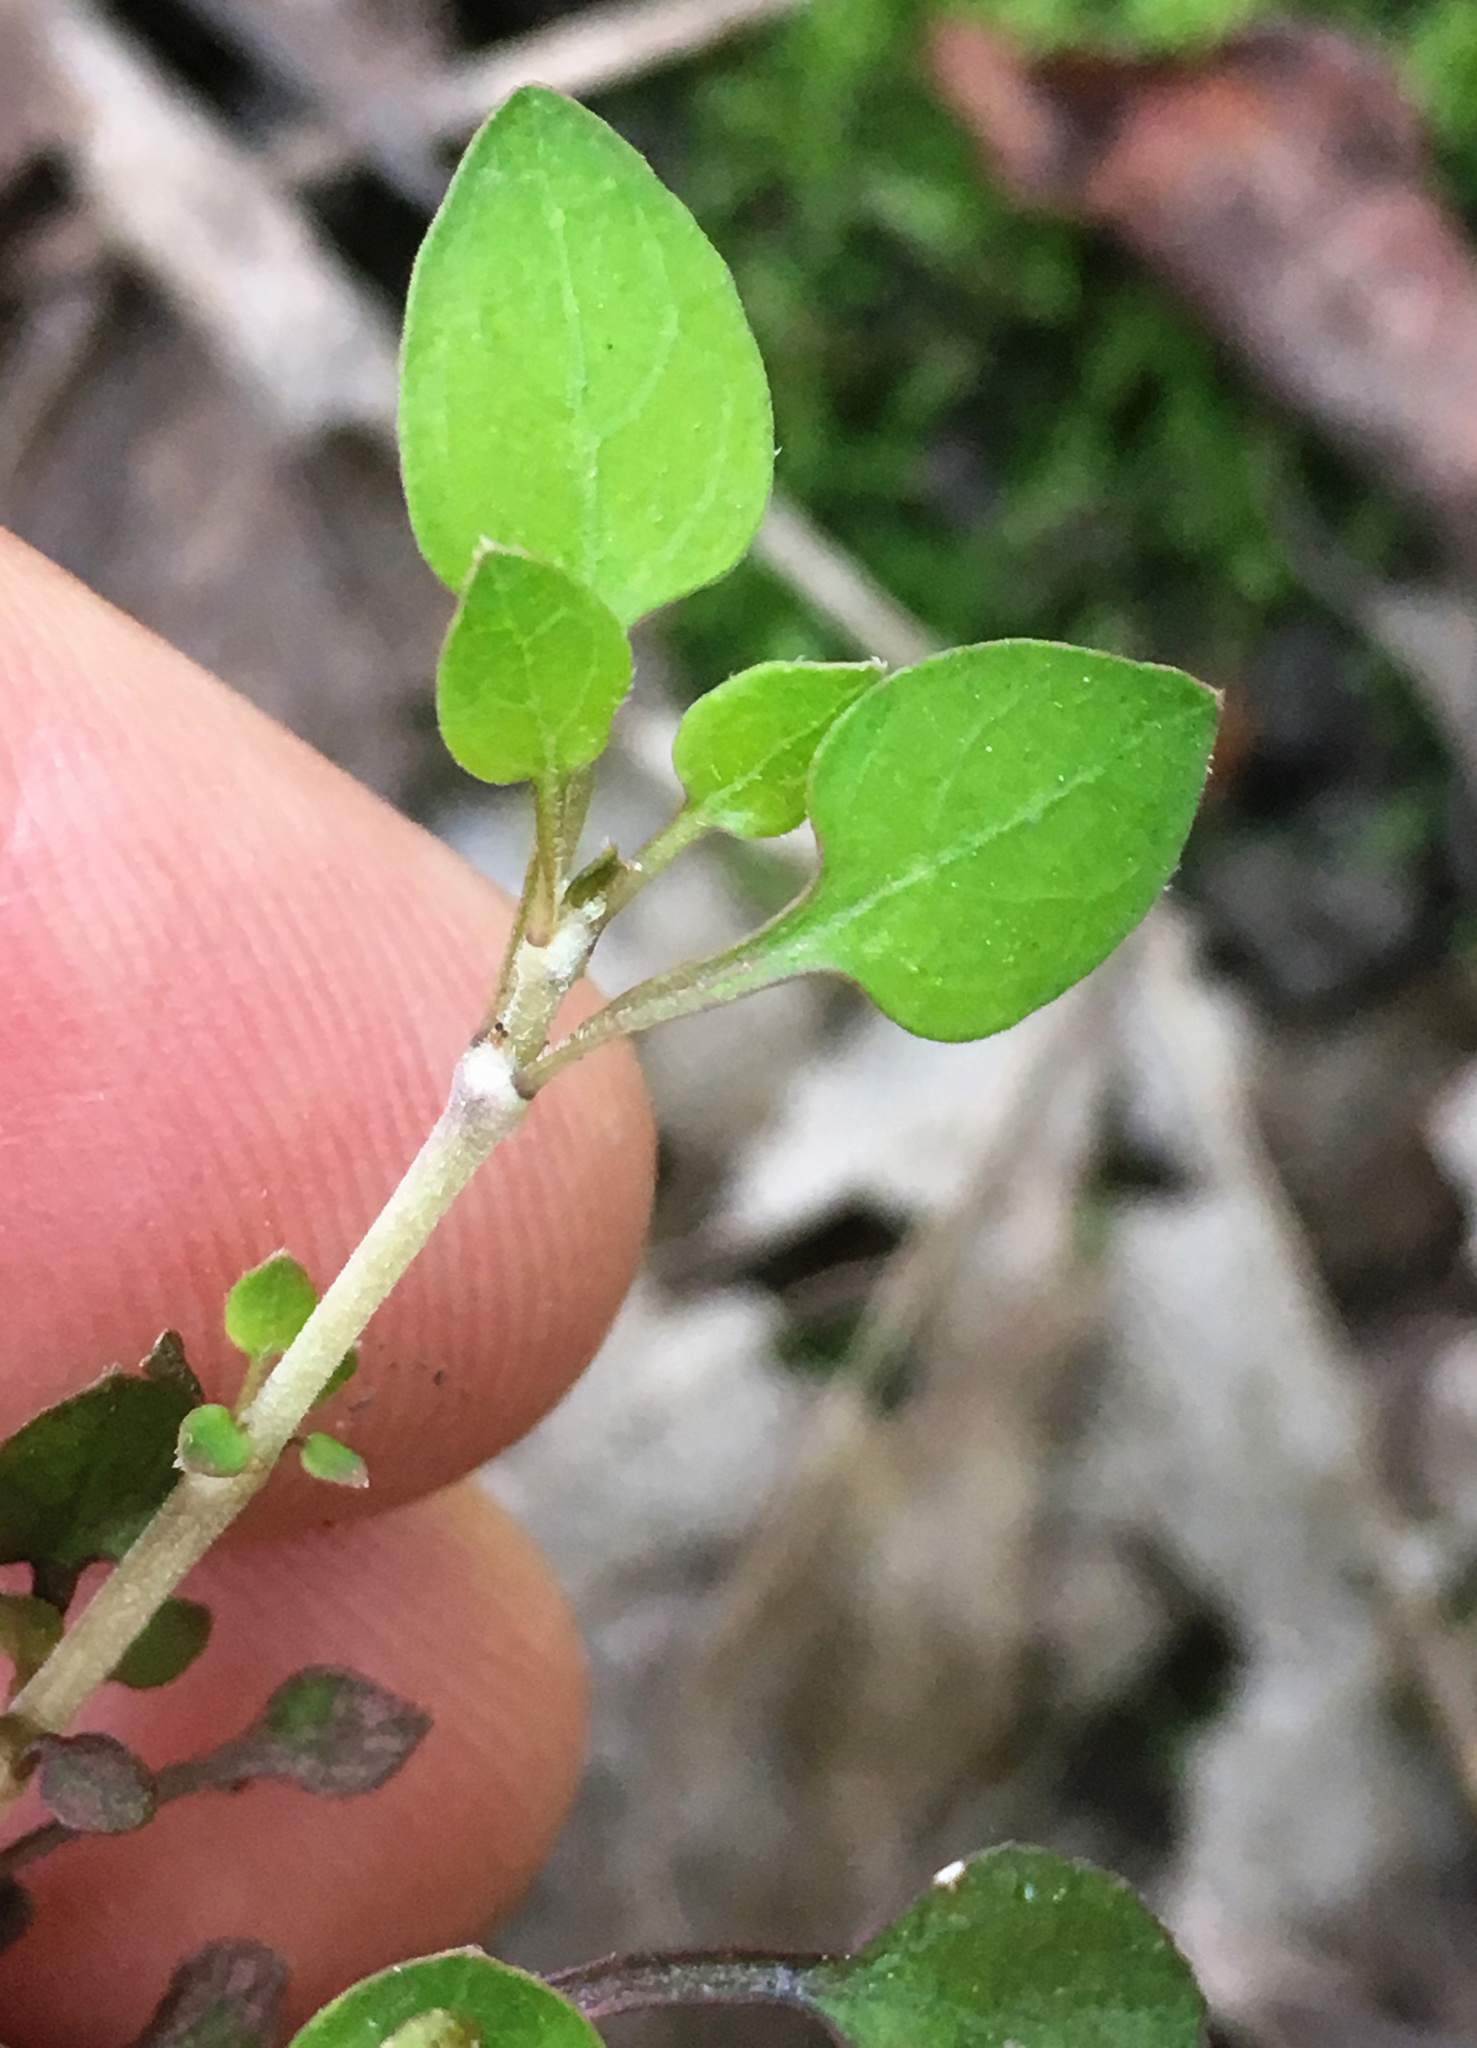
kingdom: Plantae
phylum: Tracheophyta
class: Magnoliopsida
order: Gentianales
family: Rubiaceae
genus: Coprosma
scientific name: Coprosma rubra
